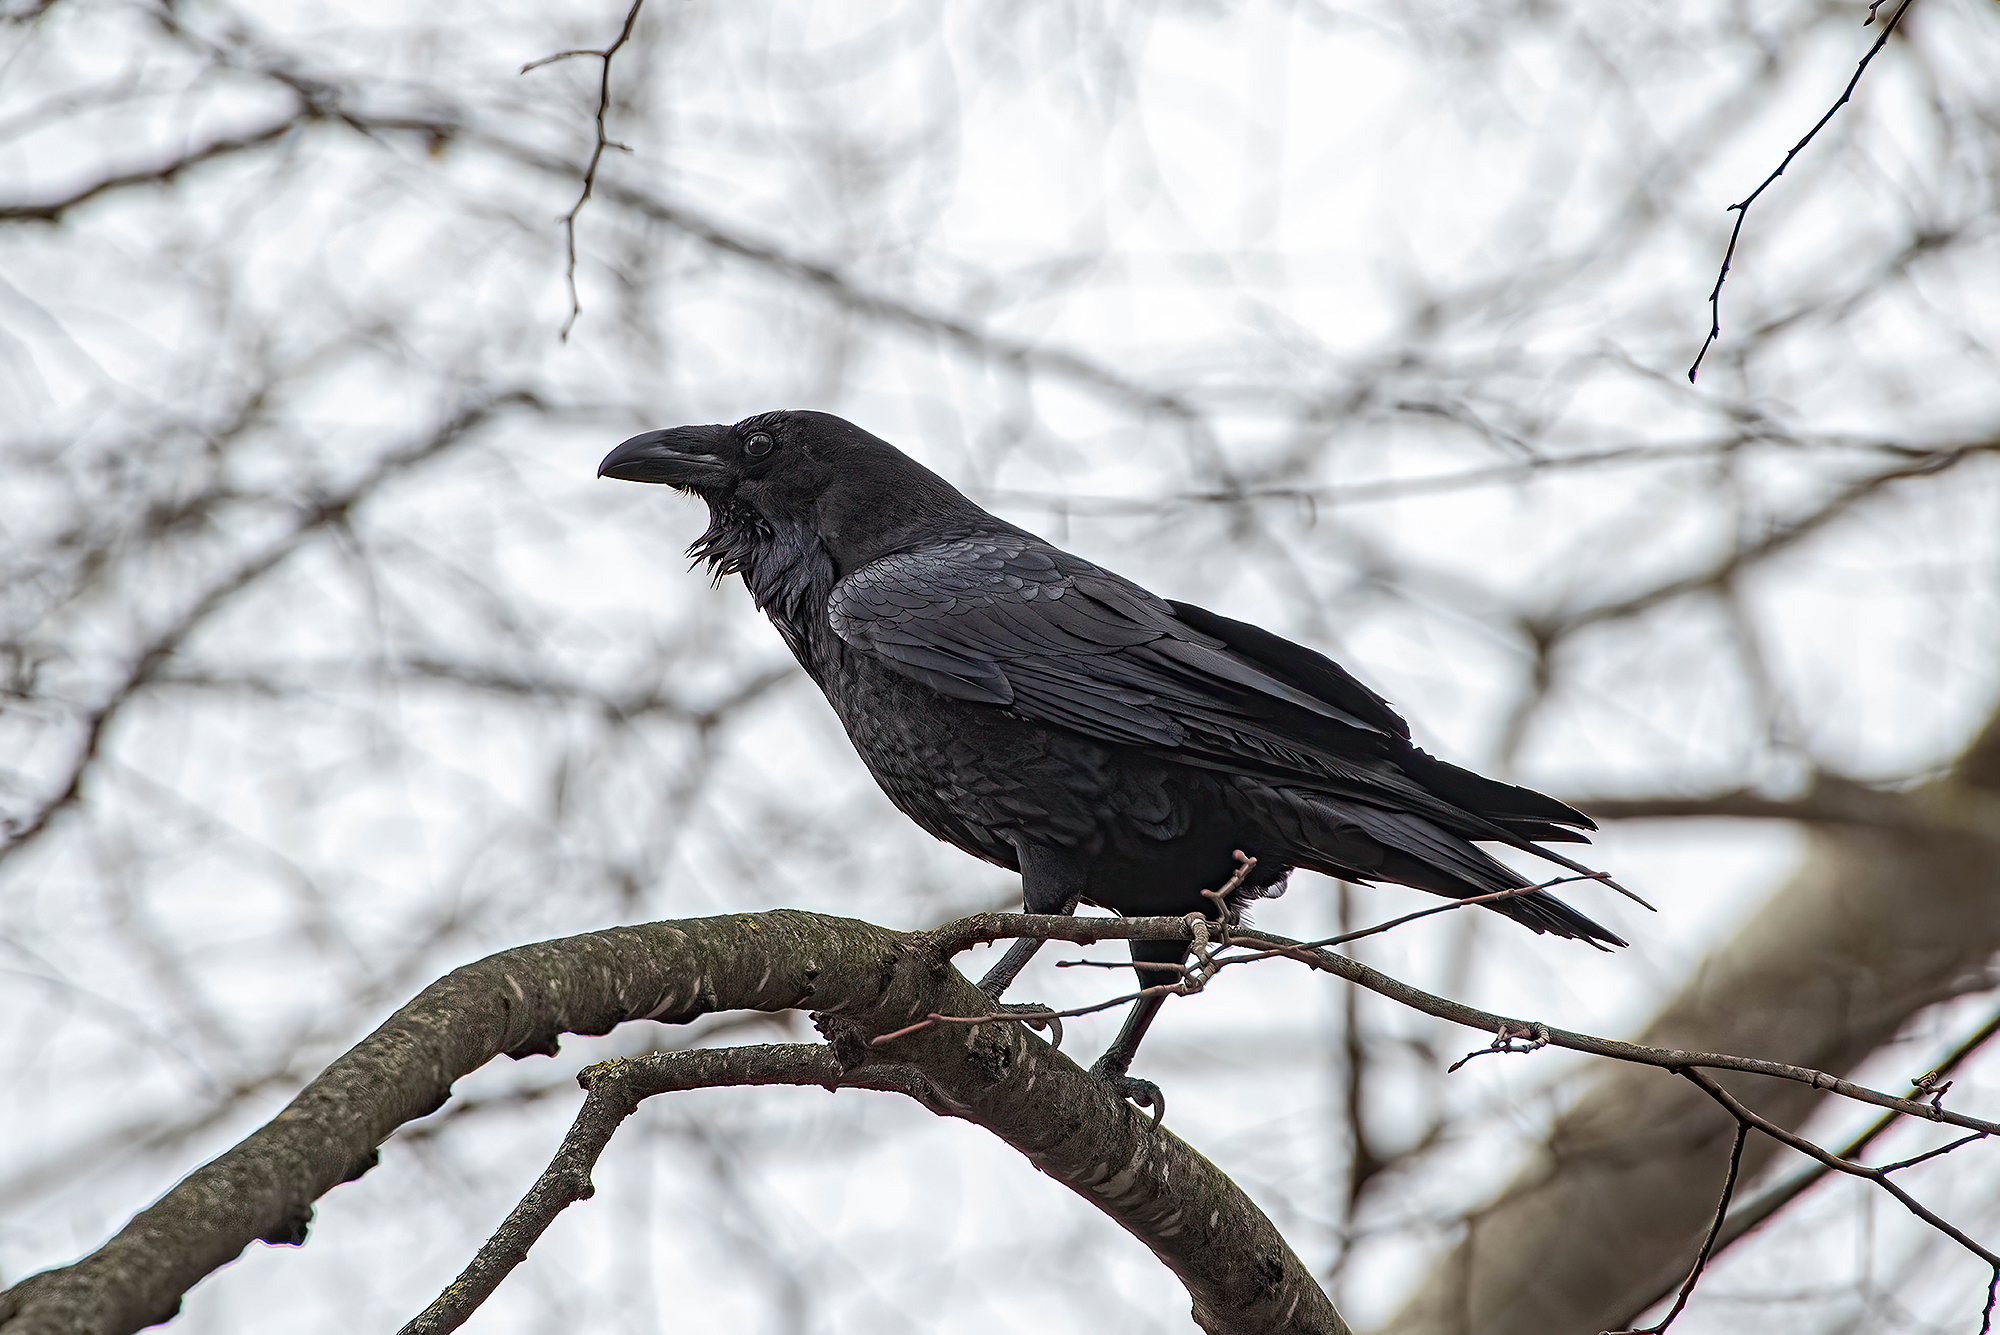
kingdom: Animalia
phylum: Chordata
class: Aves
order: Passeriformes
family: Corvidae
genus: Corvus
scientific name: Corvus corax
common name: Common raven
